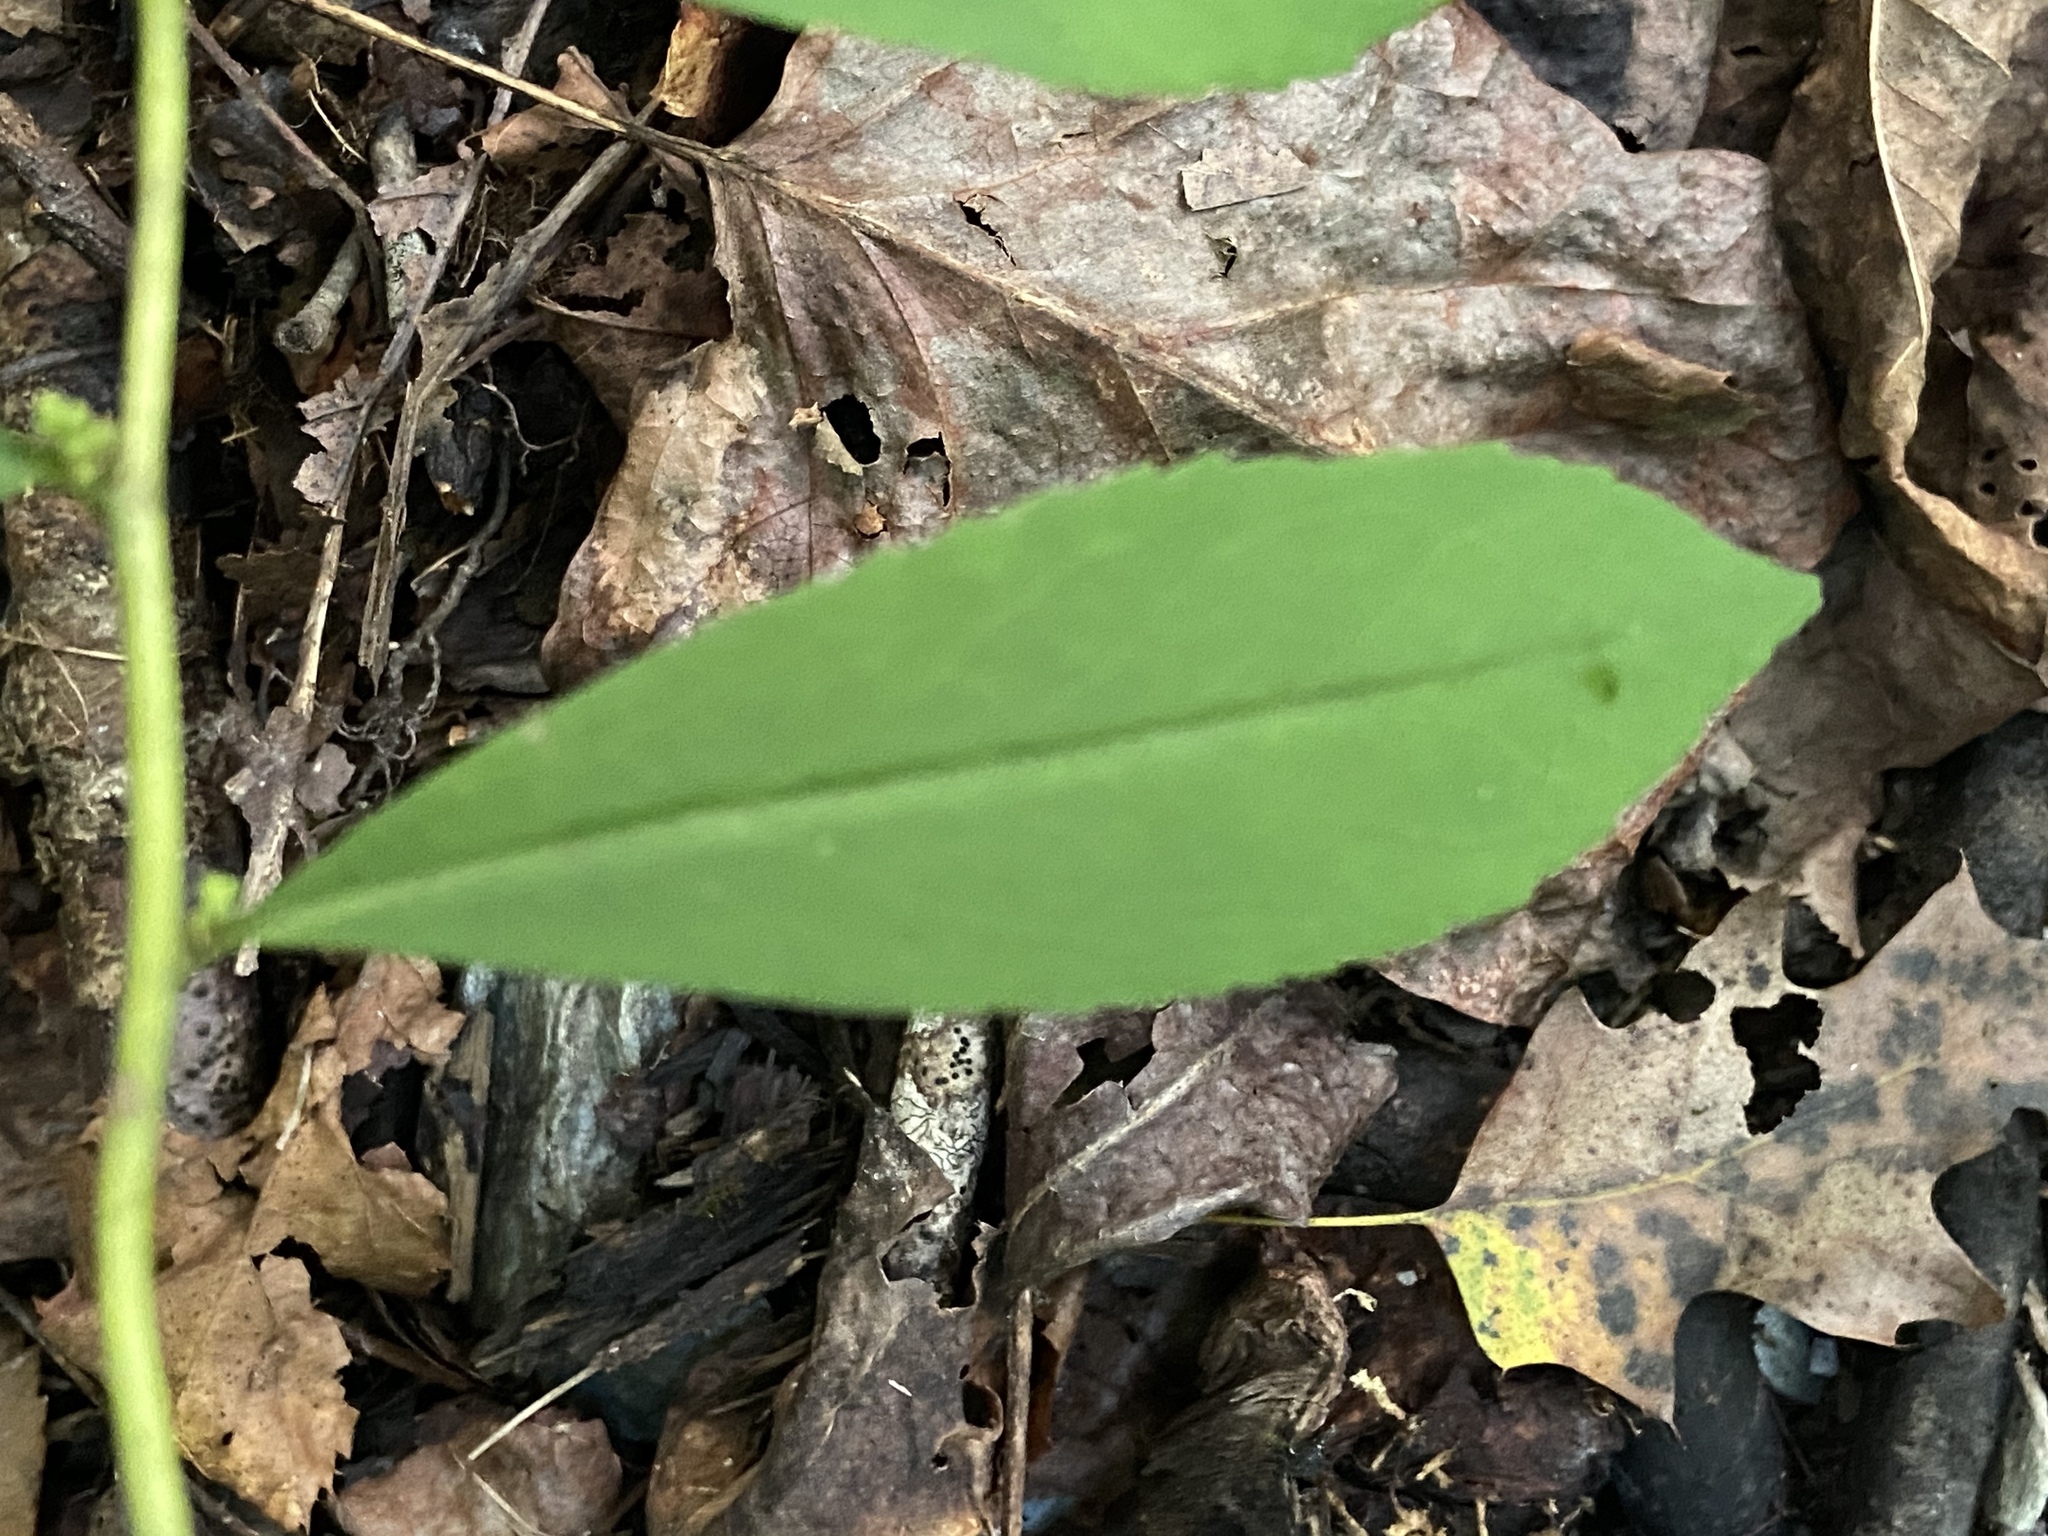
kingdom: Plantae
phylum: Tracheophyta
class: Magnoliopsida
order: Asterales
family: Asteraceae
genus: Solidago
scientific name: Solidago caesia
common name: Woodland goldenrod
